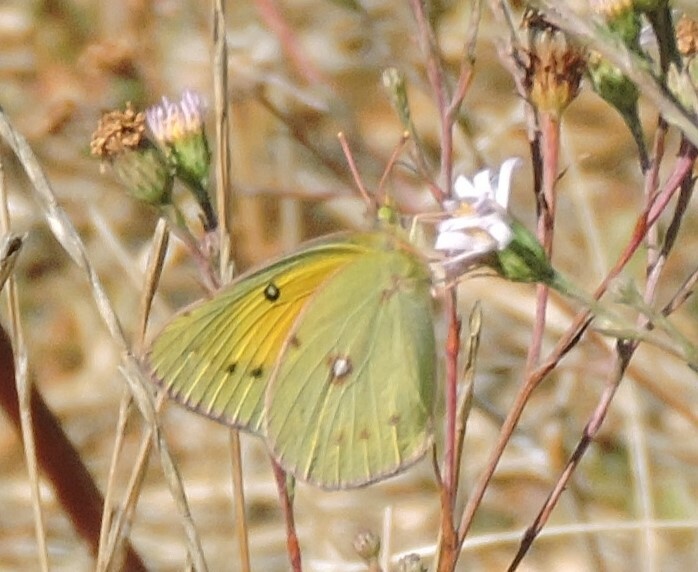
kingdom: Animalia
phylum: Arthropoda
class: Insecta
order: Lepidoptera
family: Pieridae
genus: Colias
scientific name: Colias eurytheme
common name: Alfalfa butterfly
